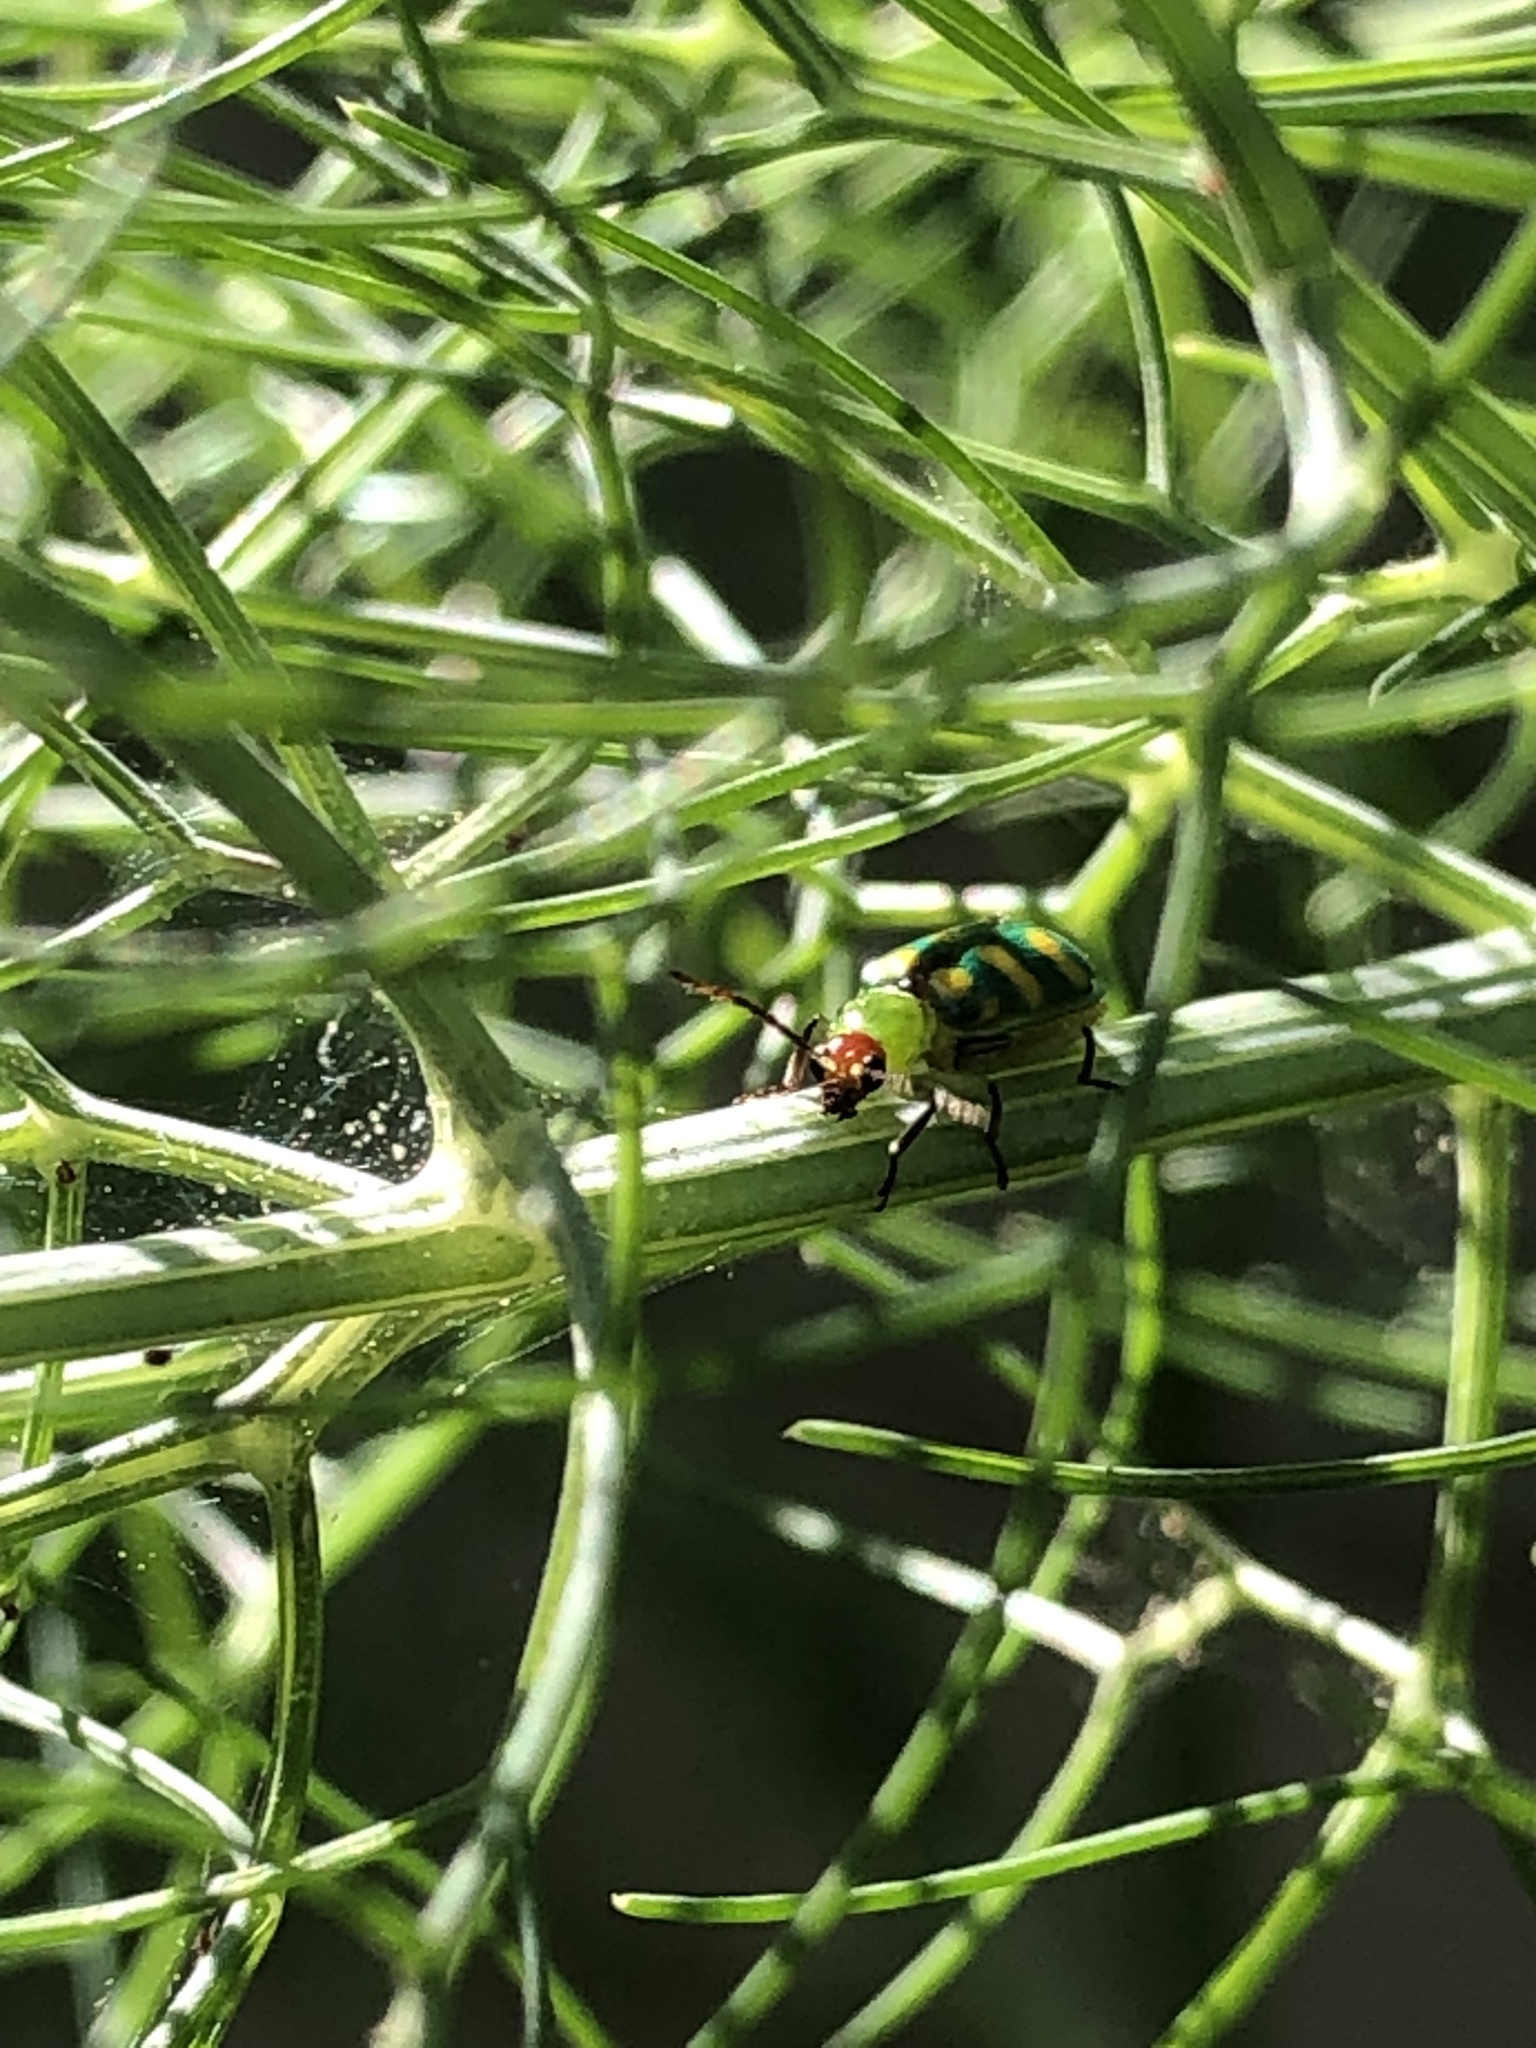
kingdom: Animalia
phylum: Arthropoda
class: Insecta
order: Coleoptera
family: Chrysomelidae
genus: Diabrotica
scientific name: Diabrotica balteata
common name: Leaf beetle
